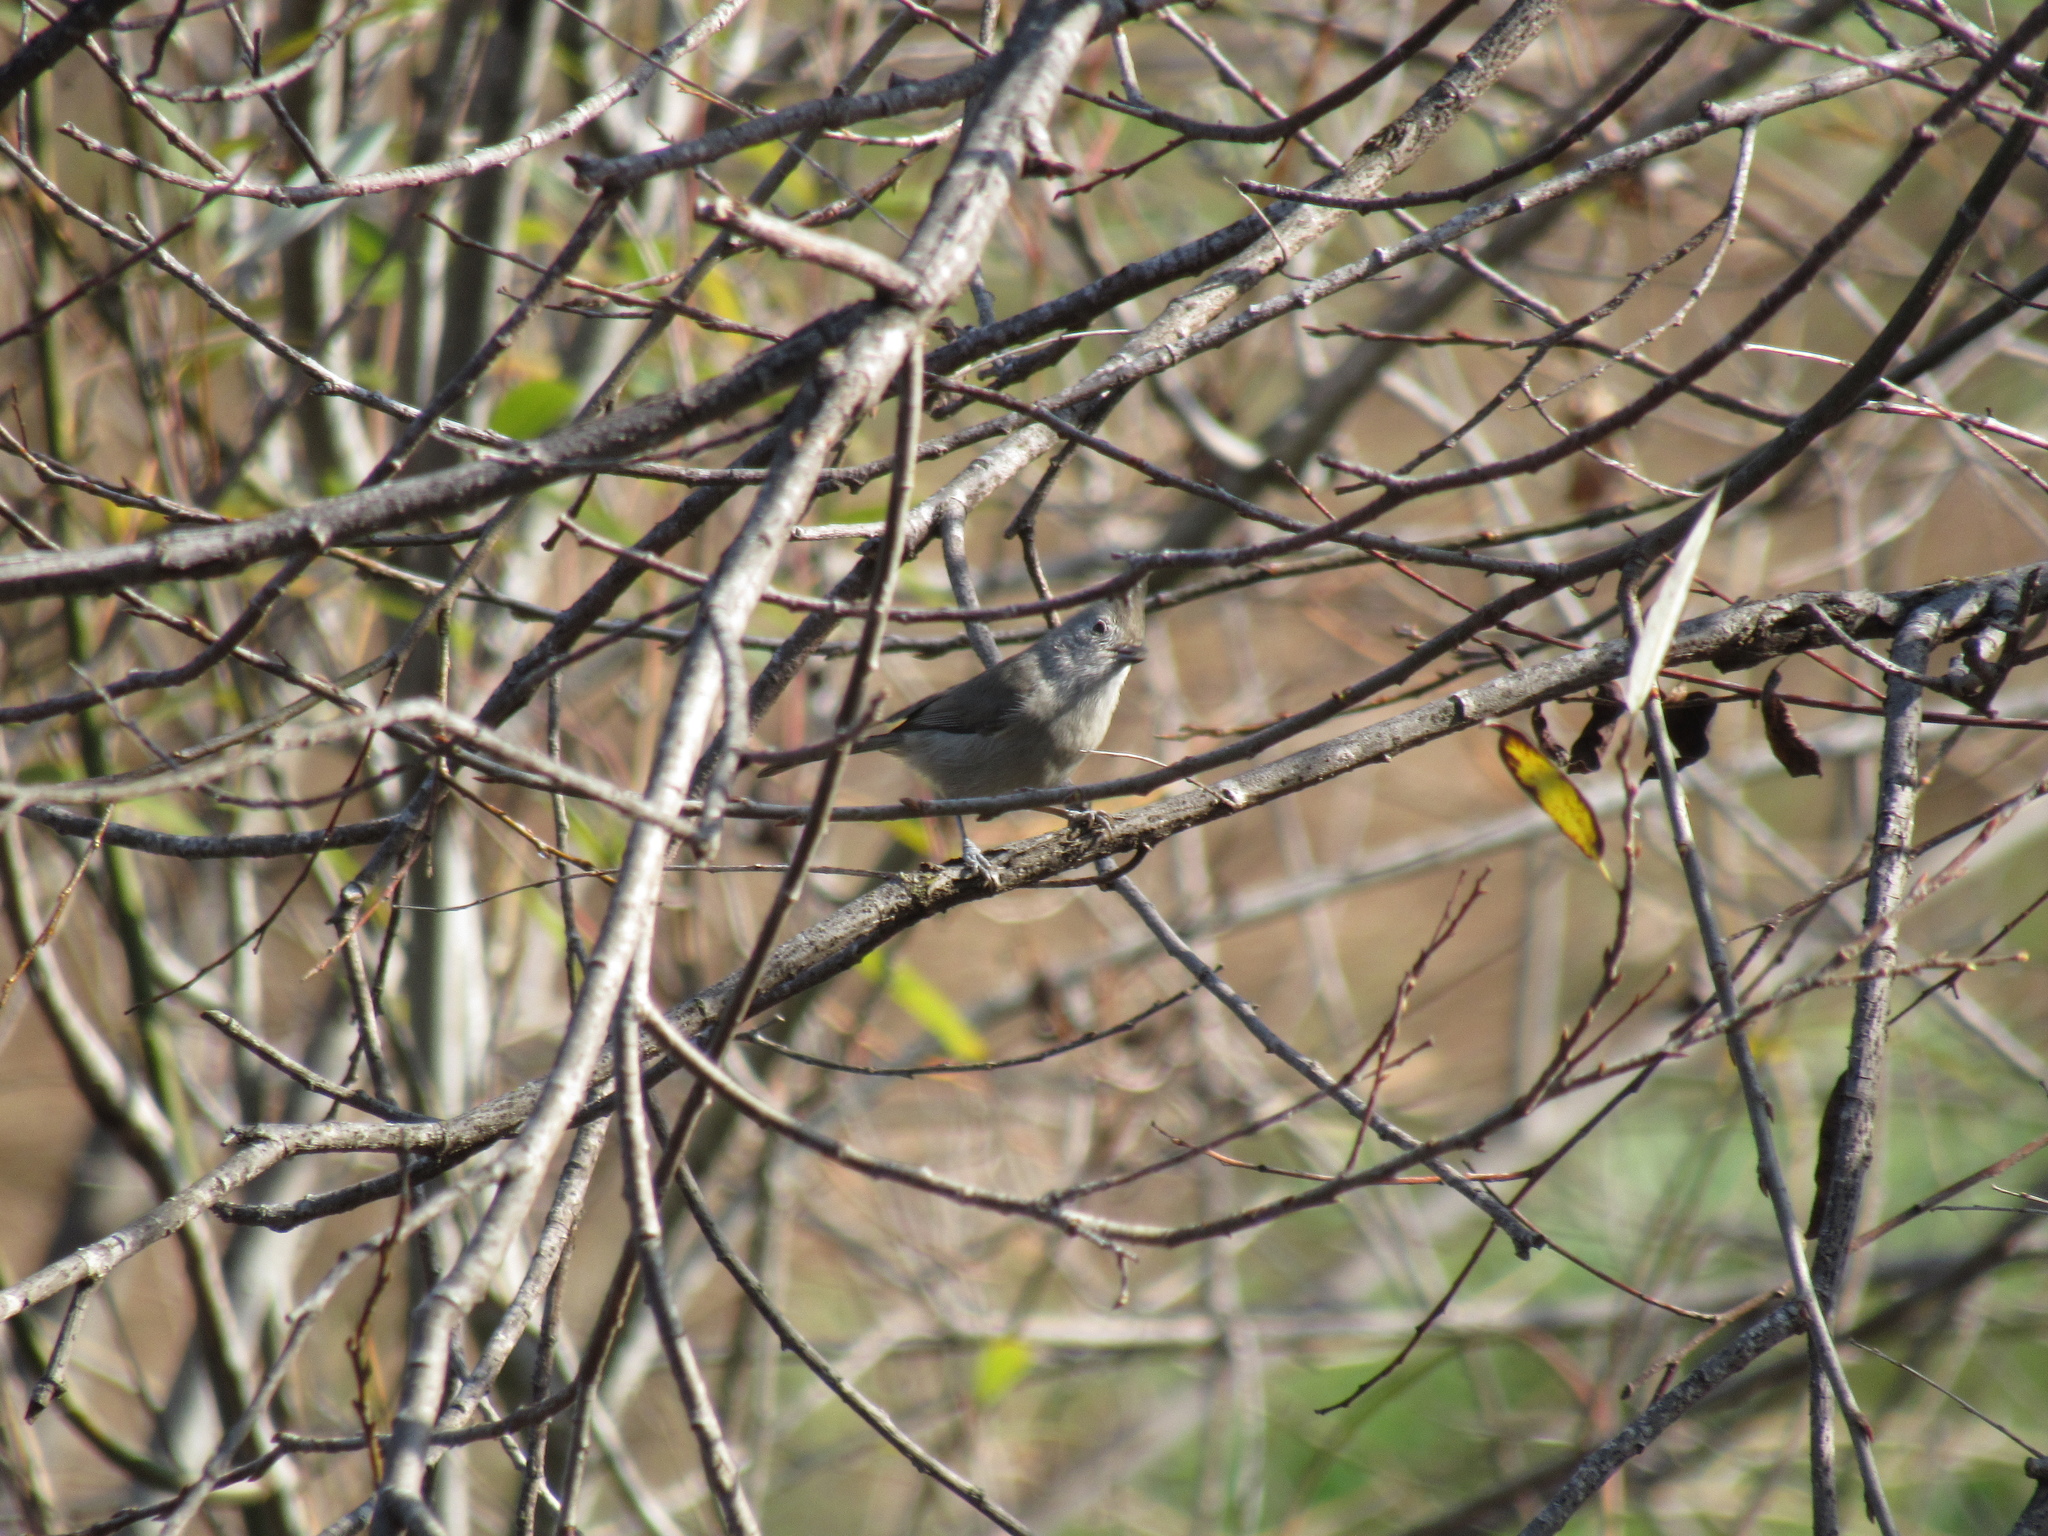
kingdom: Animalia
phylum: Chordata
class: Aves
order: Passeriformes
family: Paridae
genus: Baeolophus
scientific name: Baeolophus inornatus
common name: Oak titmouse
